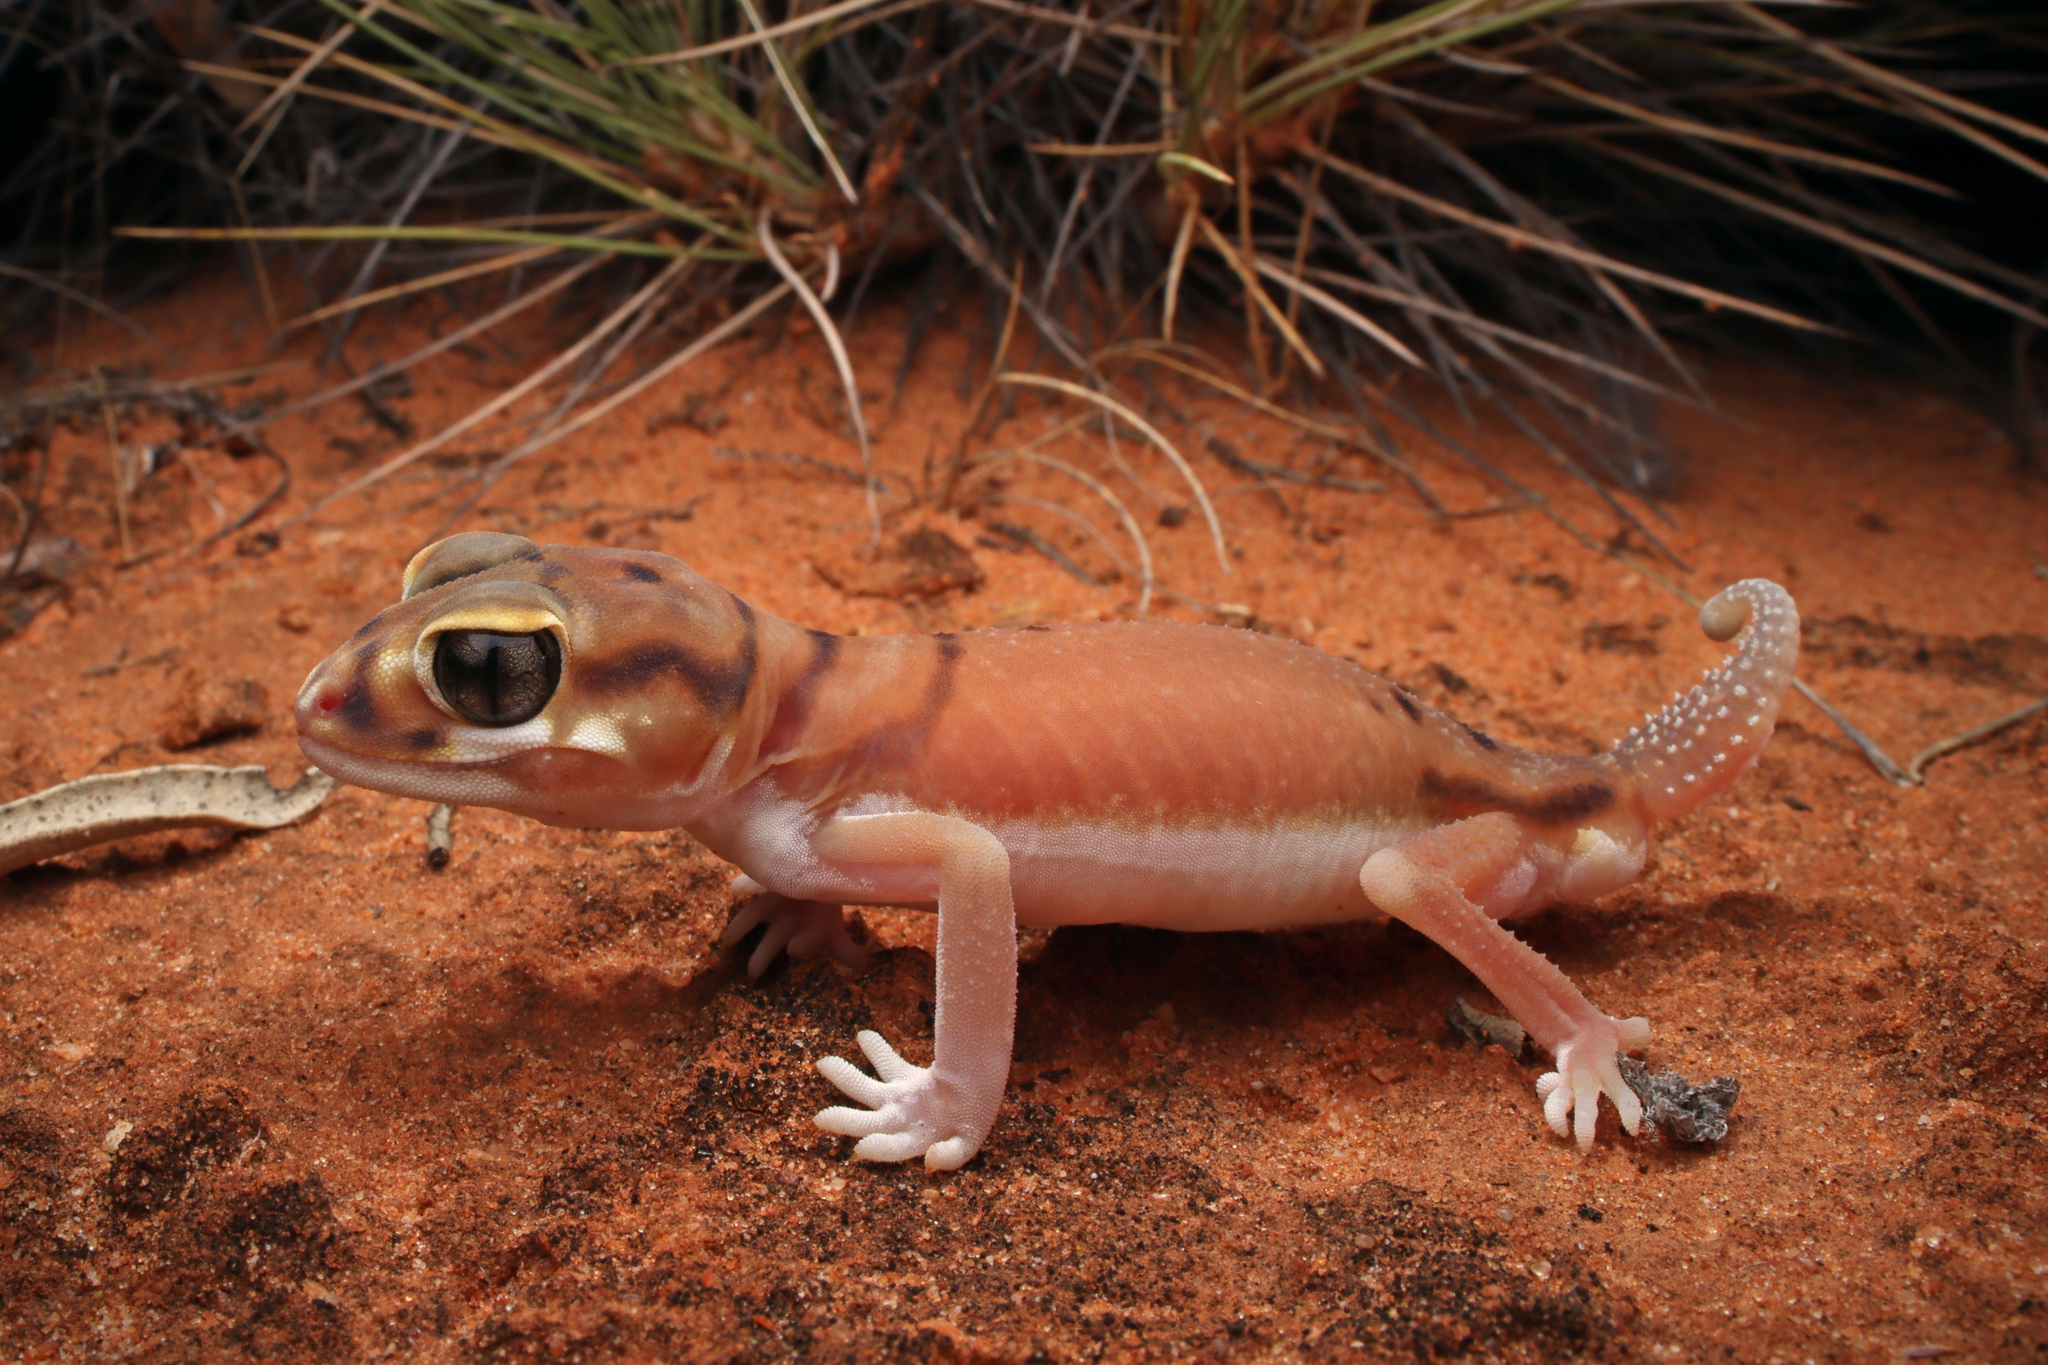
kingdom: Animalia
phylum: Chordata
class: Squamata
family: Carphodactylidae
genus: Nephrurus
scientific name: Nephrurus laevissimus
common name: Smooth knob-tail
